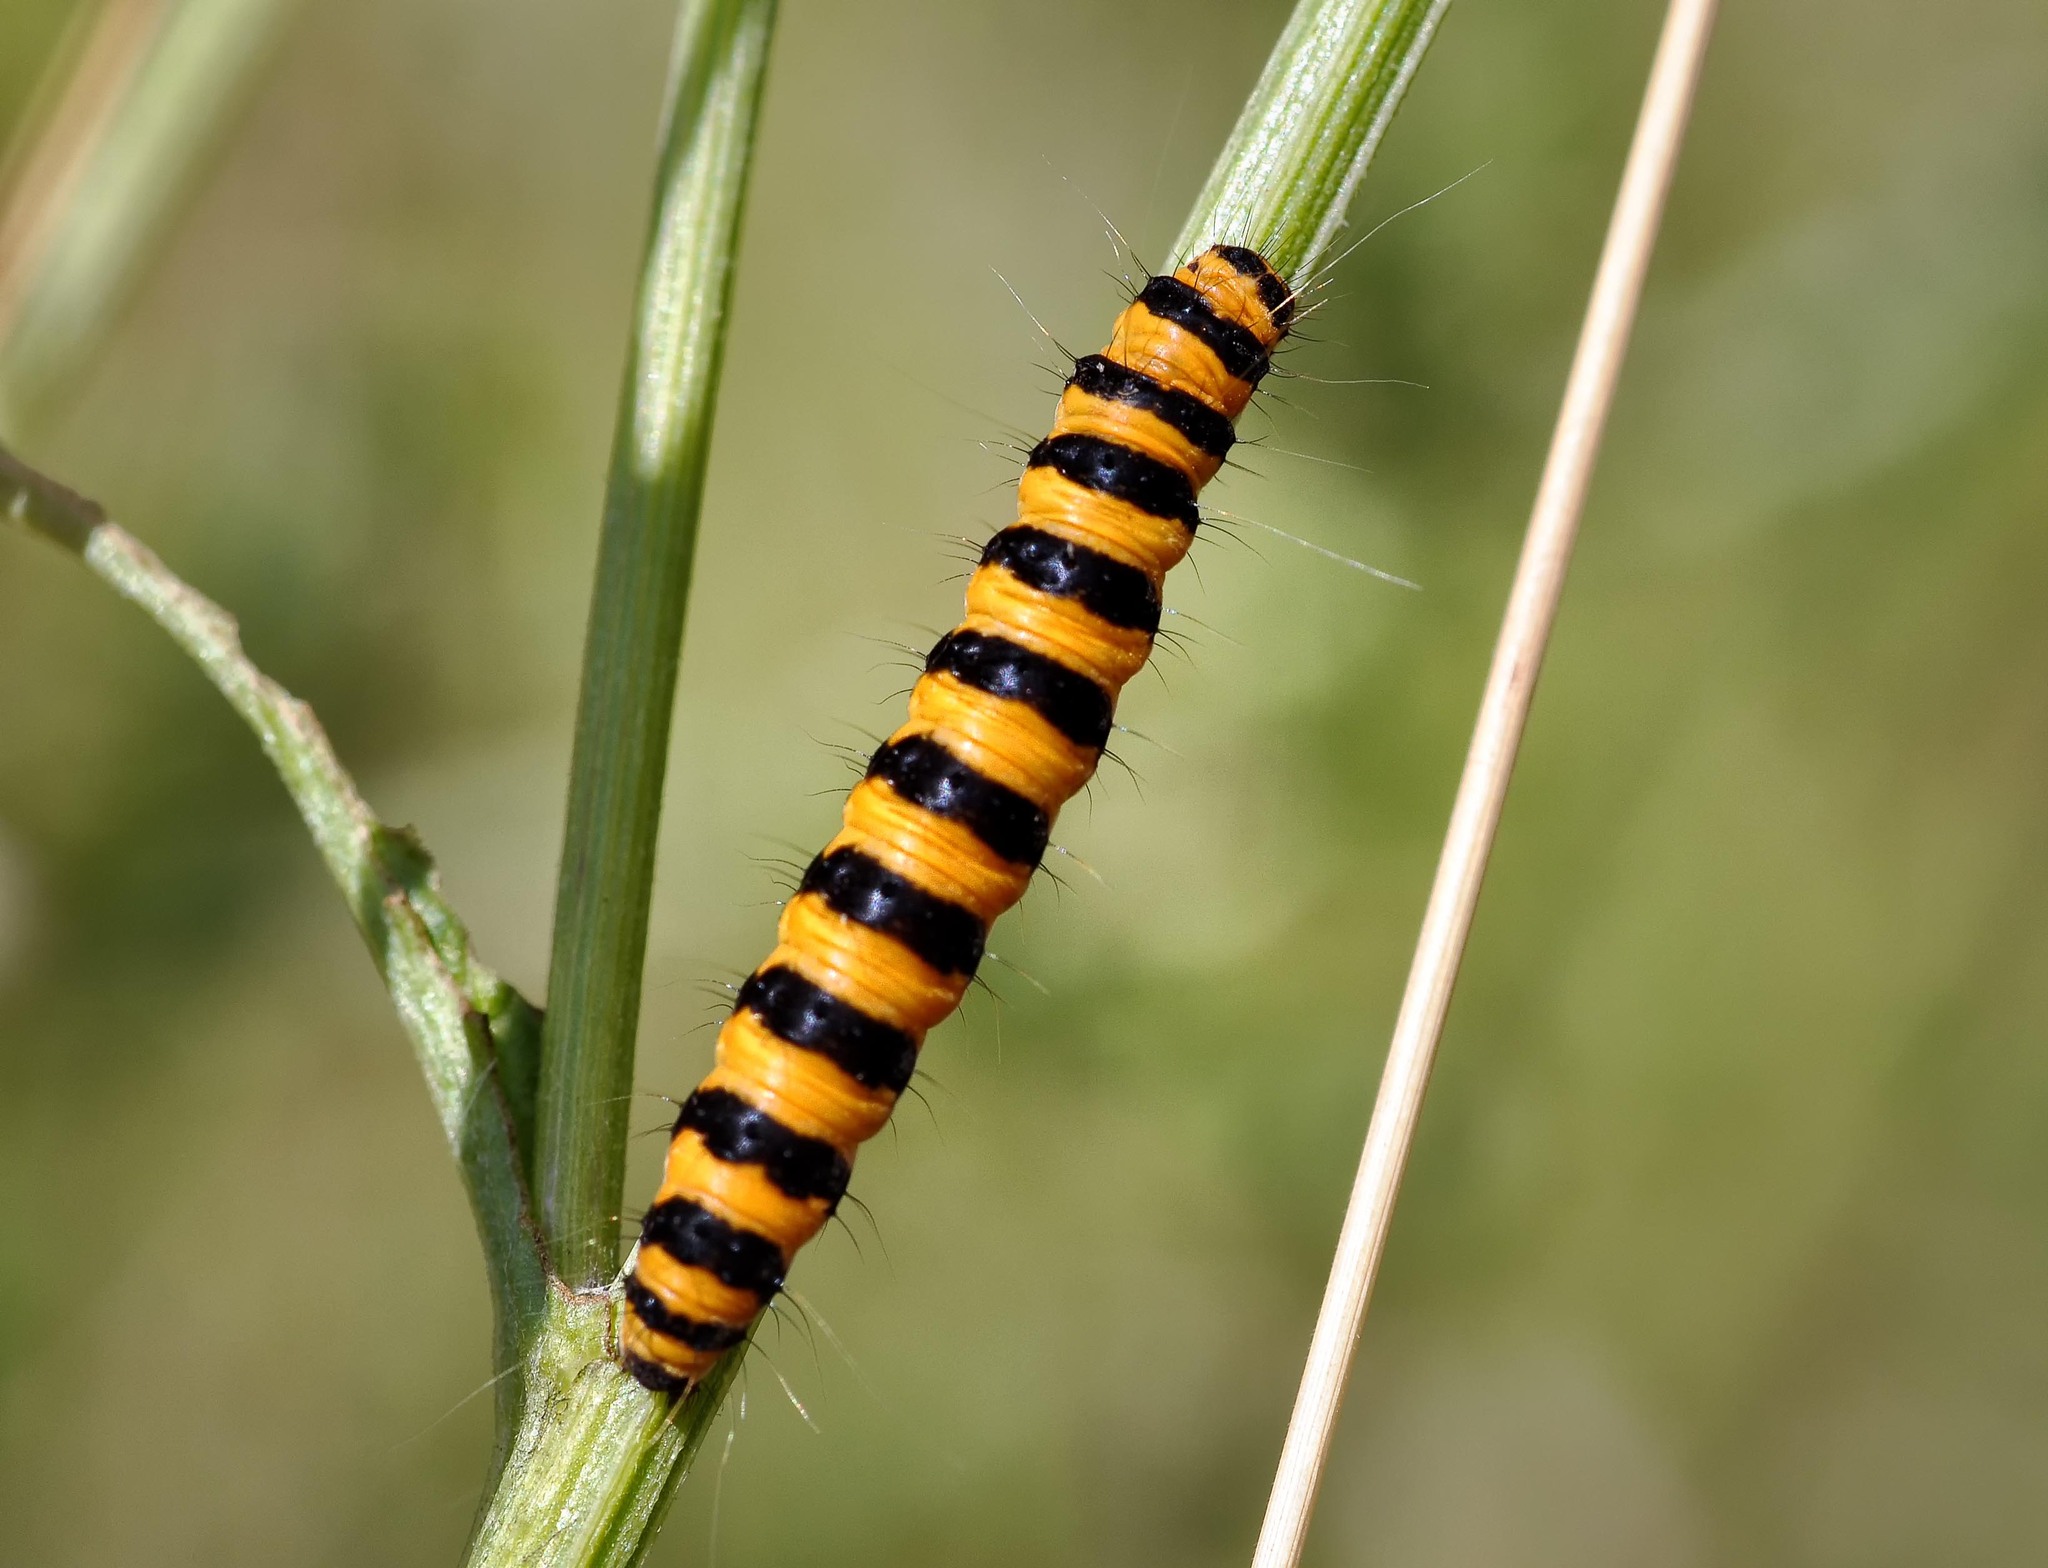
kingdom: Animalia
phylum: Arthropoda
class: Insecta
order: Lepidoptera
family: Erebidae
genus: Tyria
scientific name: Tyria jacobaeae
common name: Cinnabar
